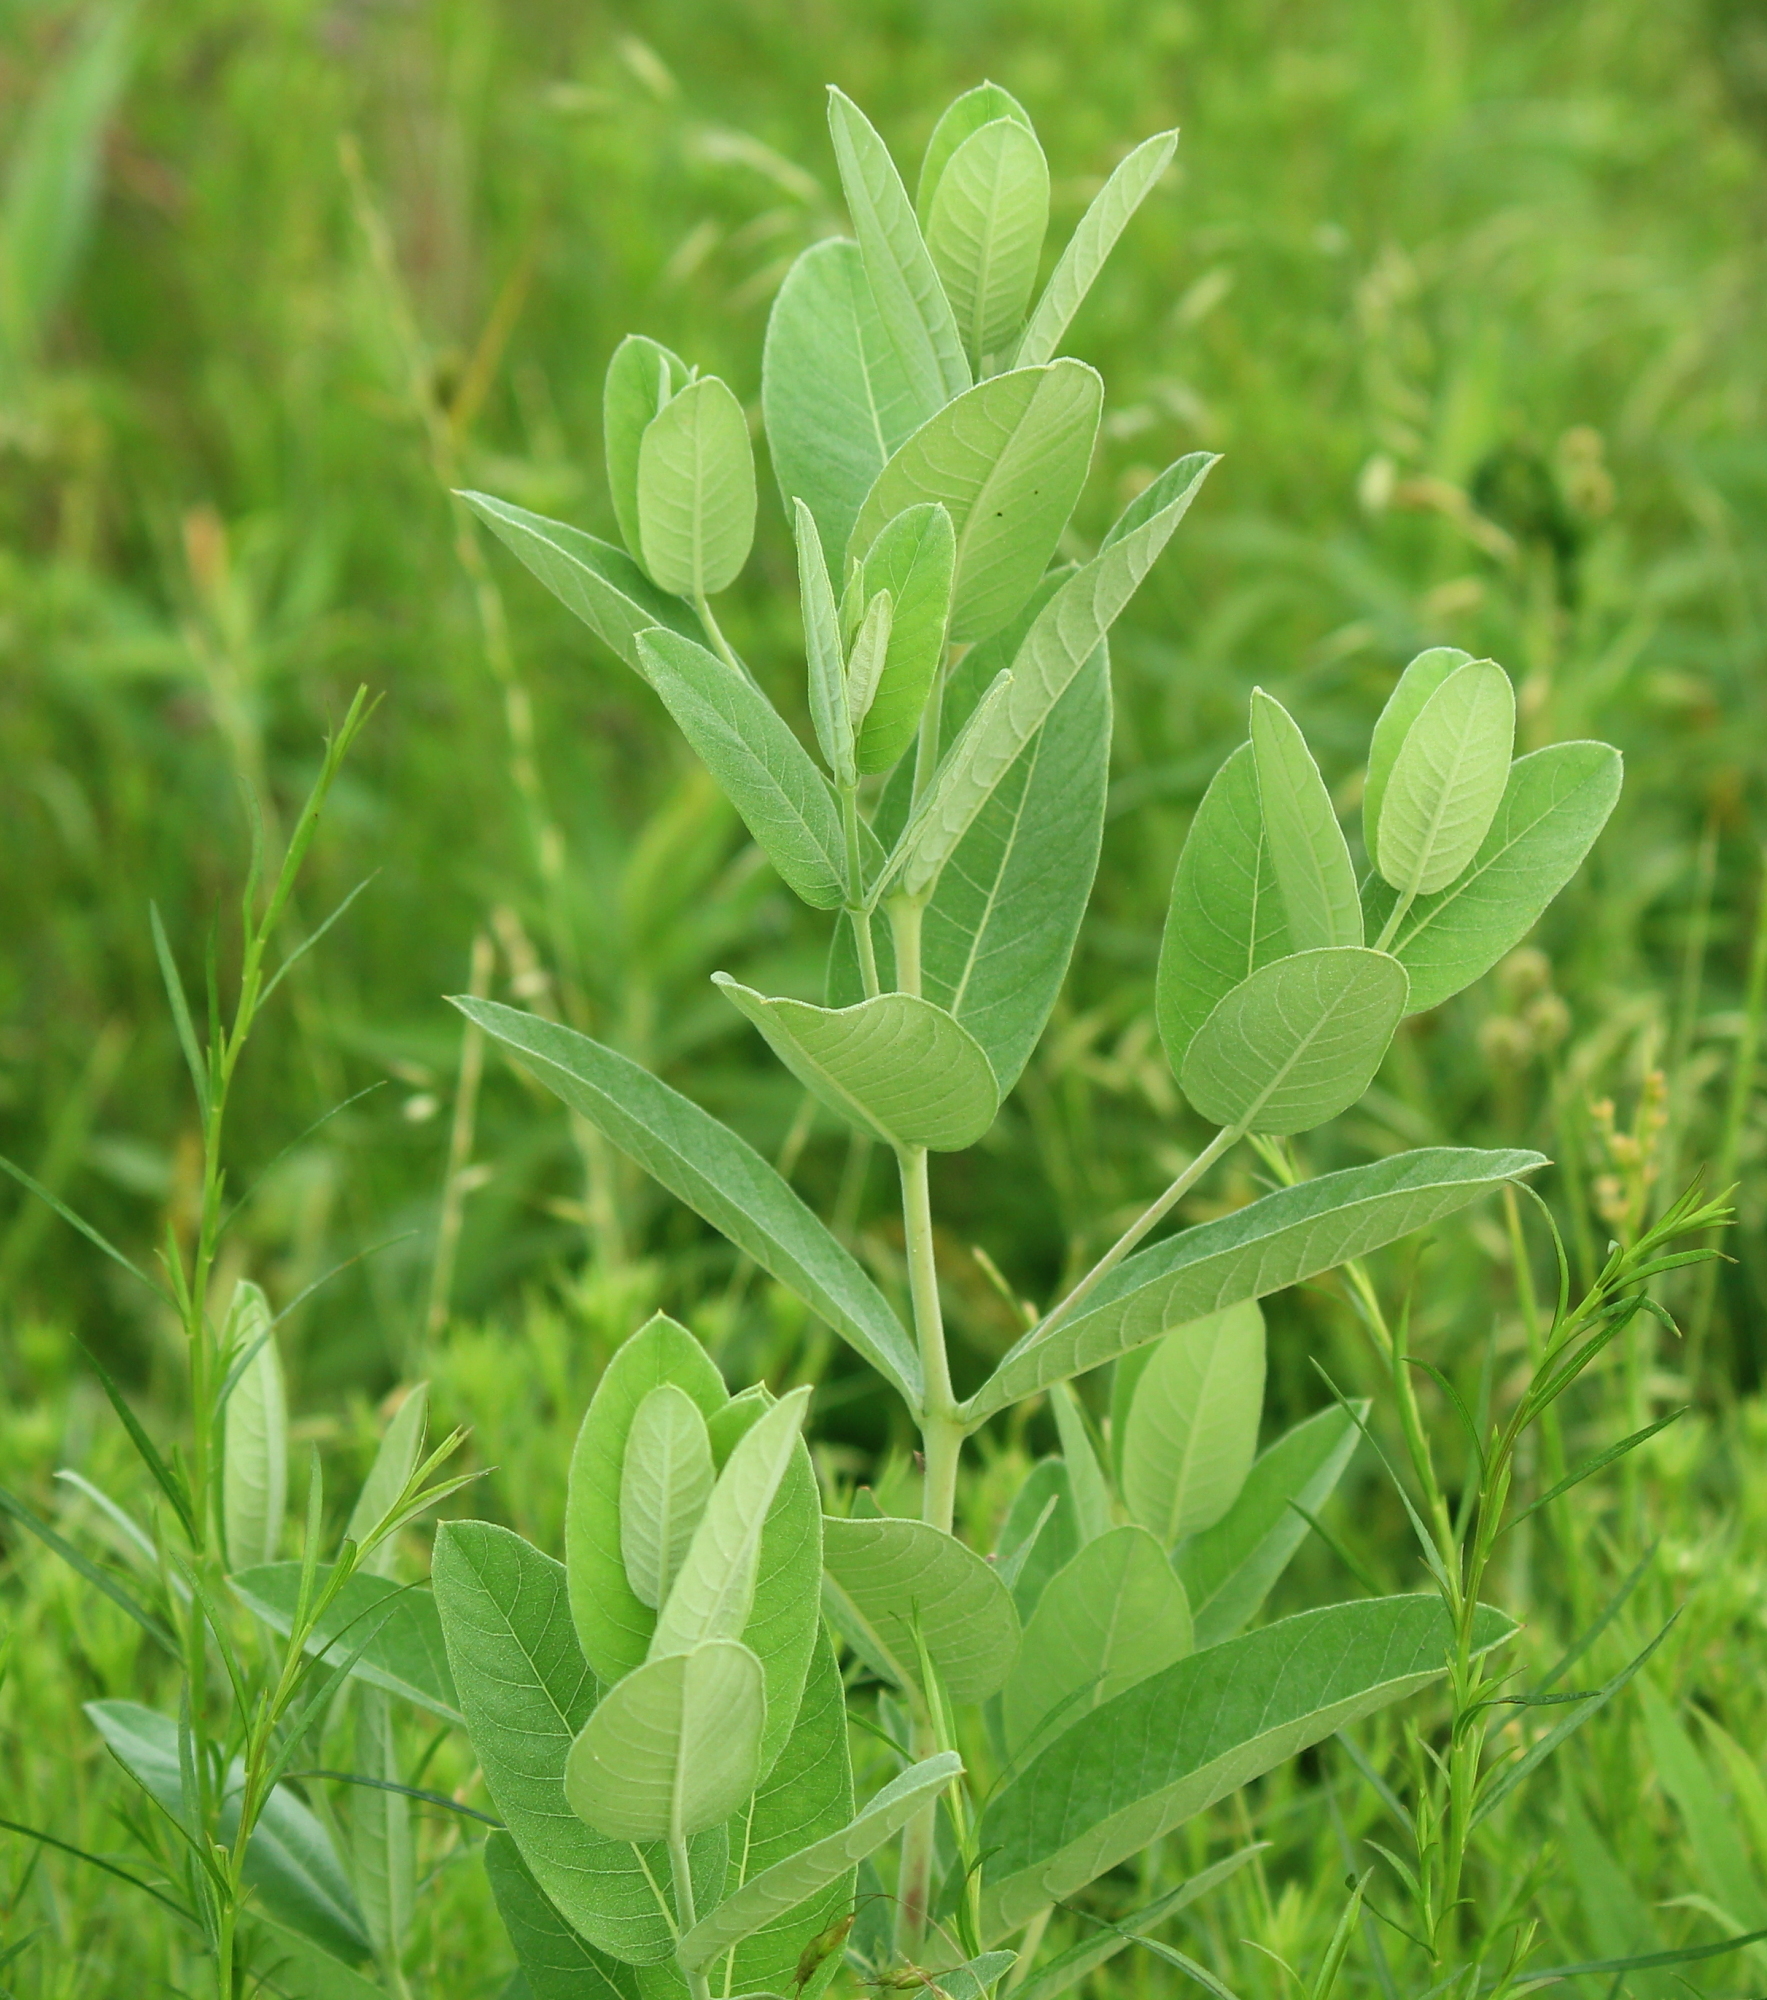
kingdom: Plantae
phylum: Tracheophyta
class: Magnoliopsida
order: Gentianales
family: Apocynaceae
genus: Apocynum
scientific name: Apocynum cannabinum
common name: Hemp dogbane
